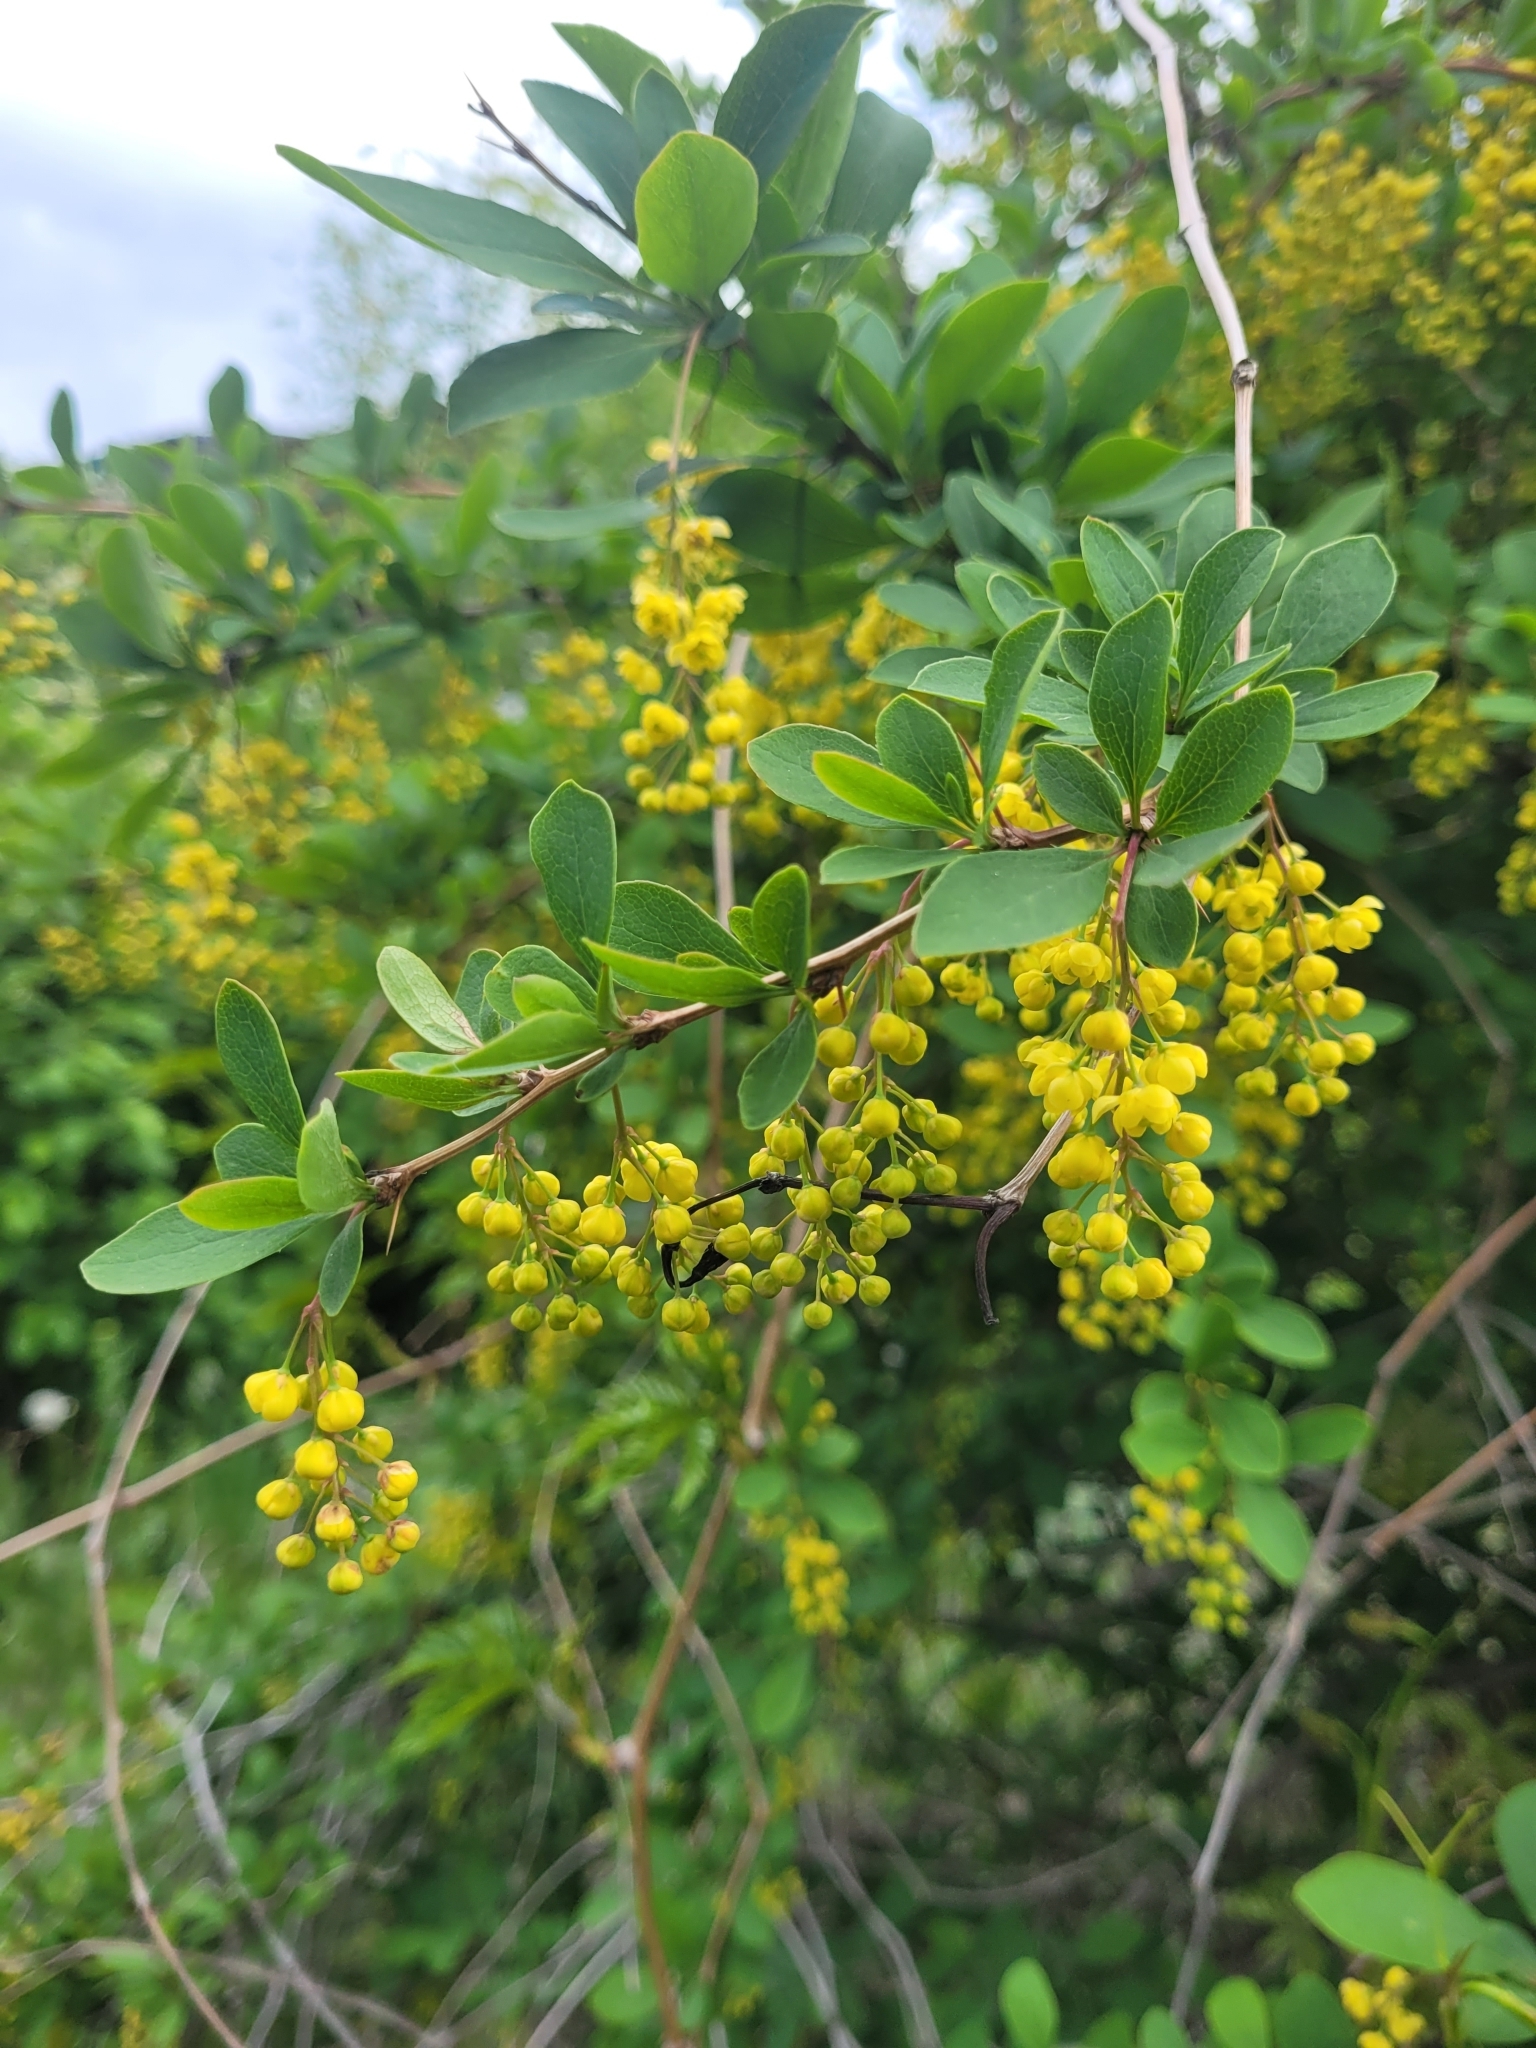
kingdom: Plantae
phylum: Tracheophyta
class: Magnoliopsida
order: Ranunculales
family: Berberidaceae
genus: Berberis
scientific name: Berberis vulgaris
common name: Barberry
